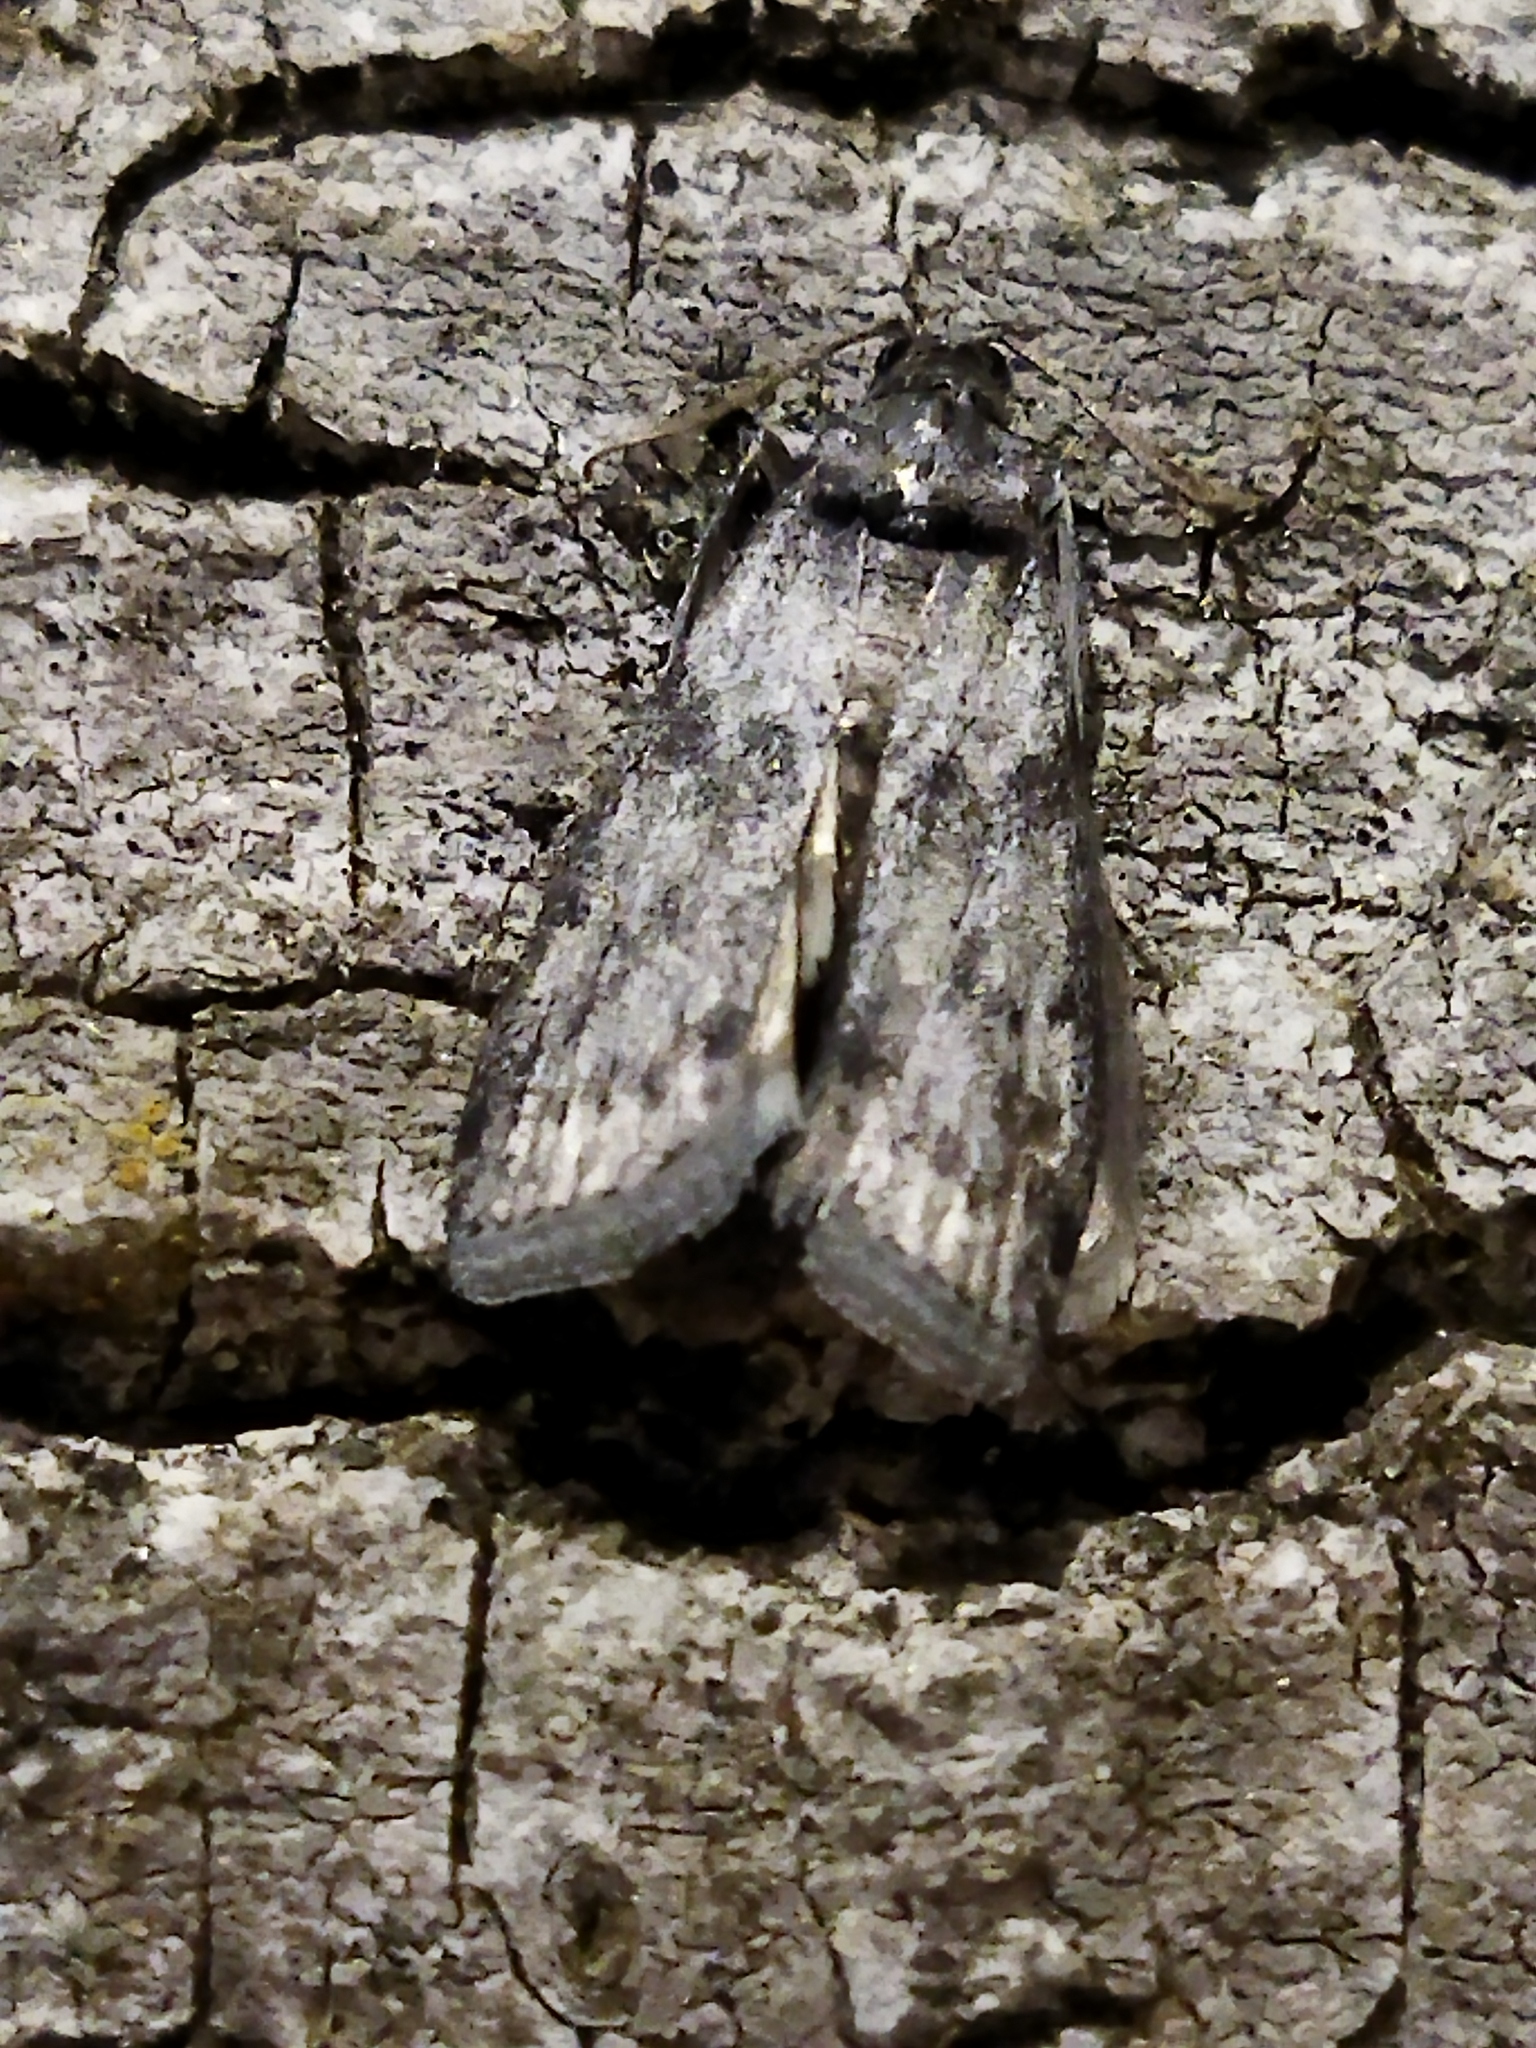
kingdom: Animalia
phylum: Arthropoda
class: Insecta
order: Lepidoptera
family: Pyralidae
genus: Ectomyelois
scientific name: Ectomyelois ceratoniae
